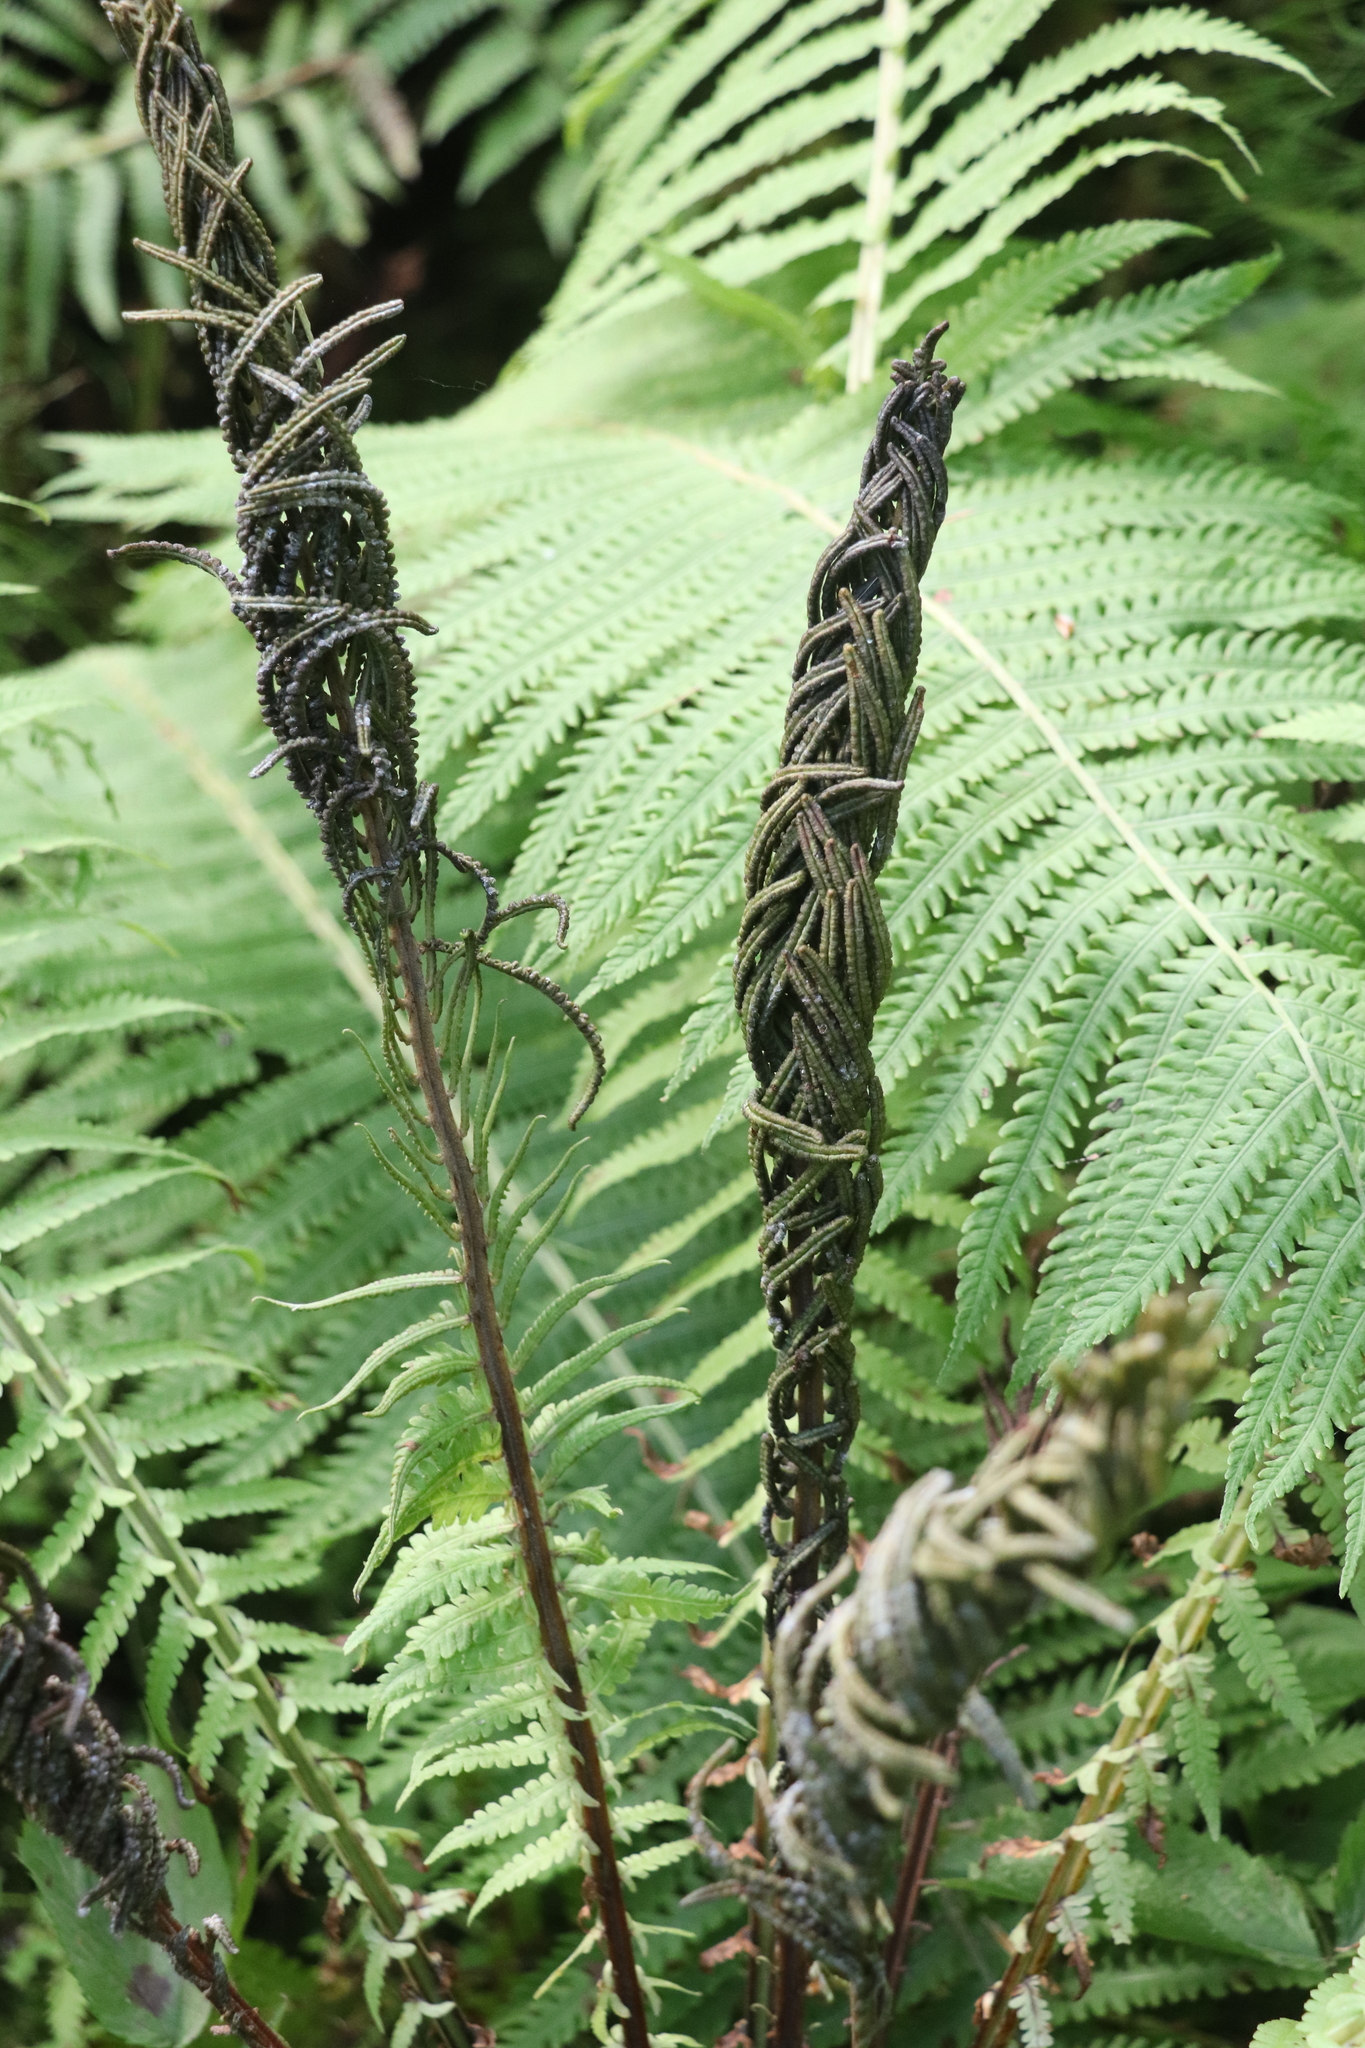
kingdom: Plantae
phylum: Tracheophyta
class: Polypodiopsida
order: Polypodiales
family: Onocleaceae
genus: Matteuccia
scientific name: Matteuccia struthiopteris
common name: Ostrich fern
